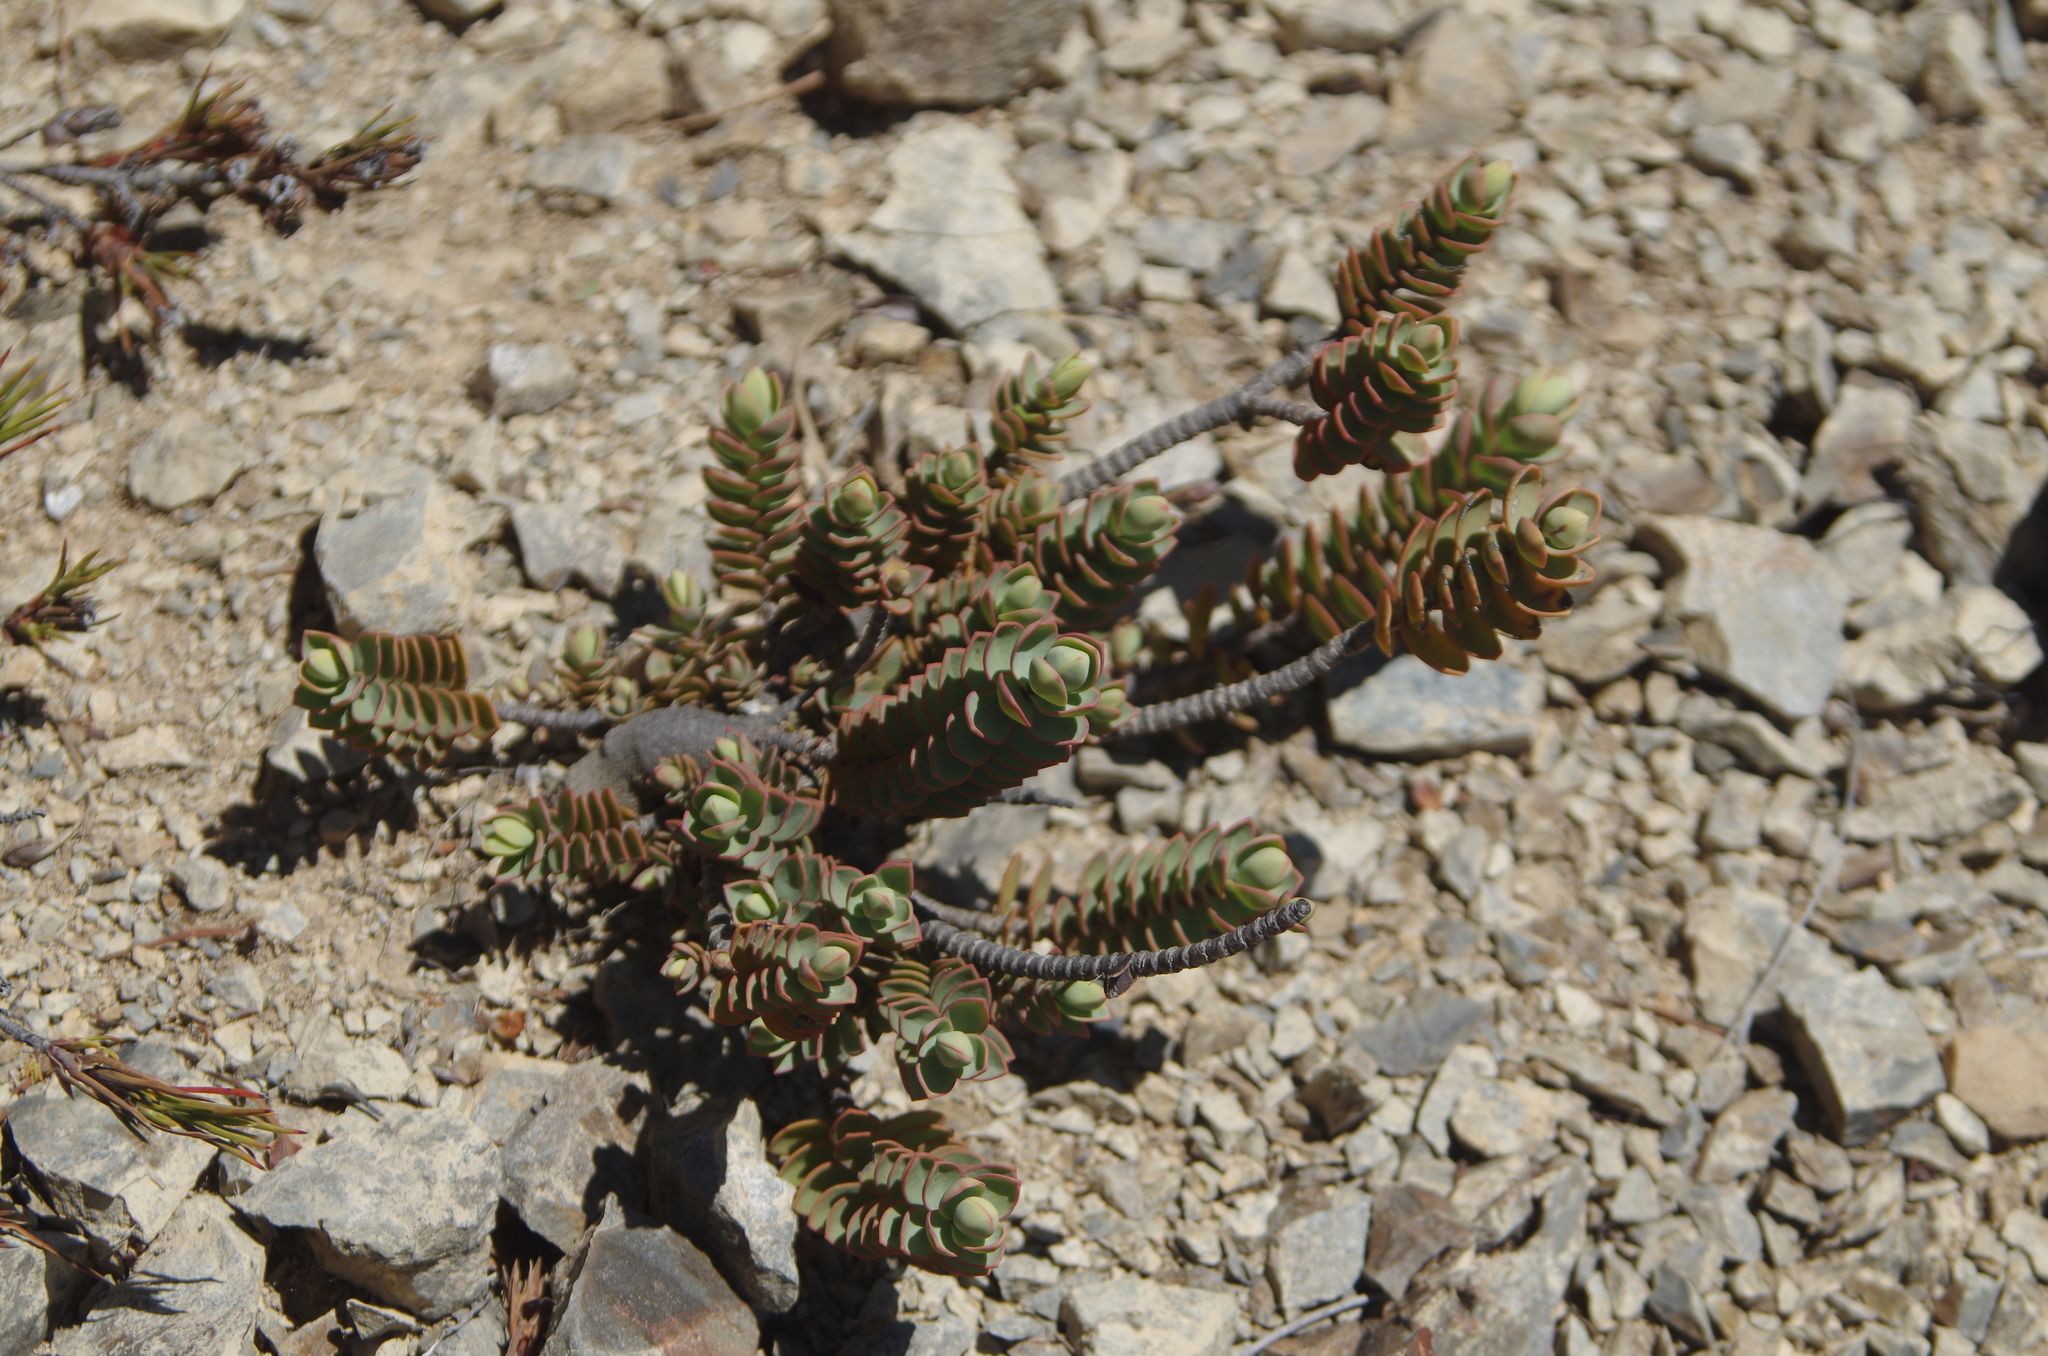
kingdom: Plantae
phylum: Tracheophyta
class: Magnoliopsida
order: Lamiales
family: Plantaginaceae
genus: Veronica
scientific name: Veronica pinguifolia
